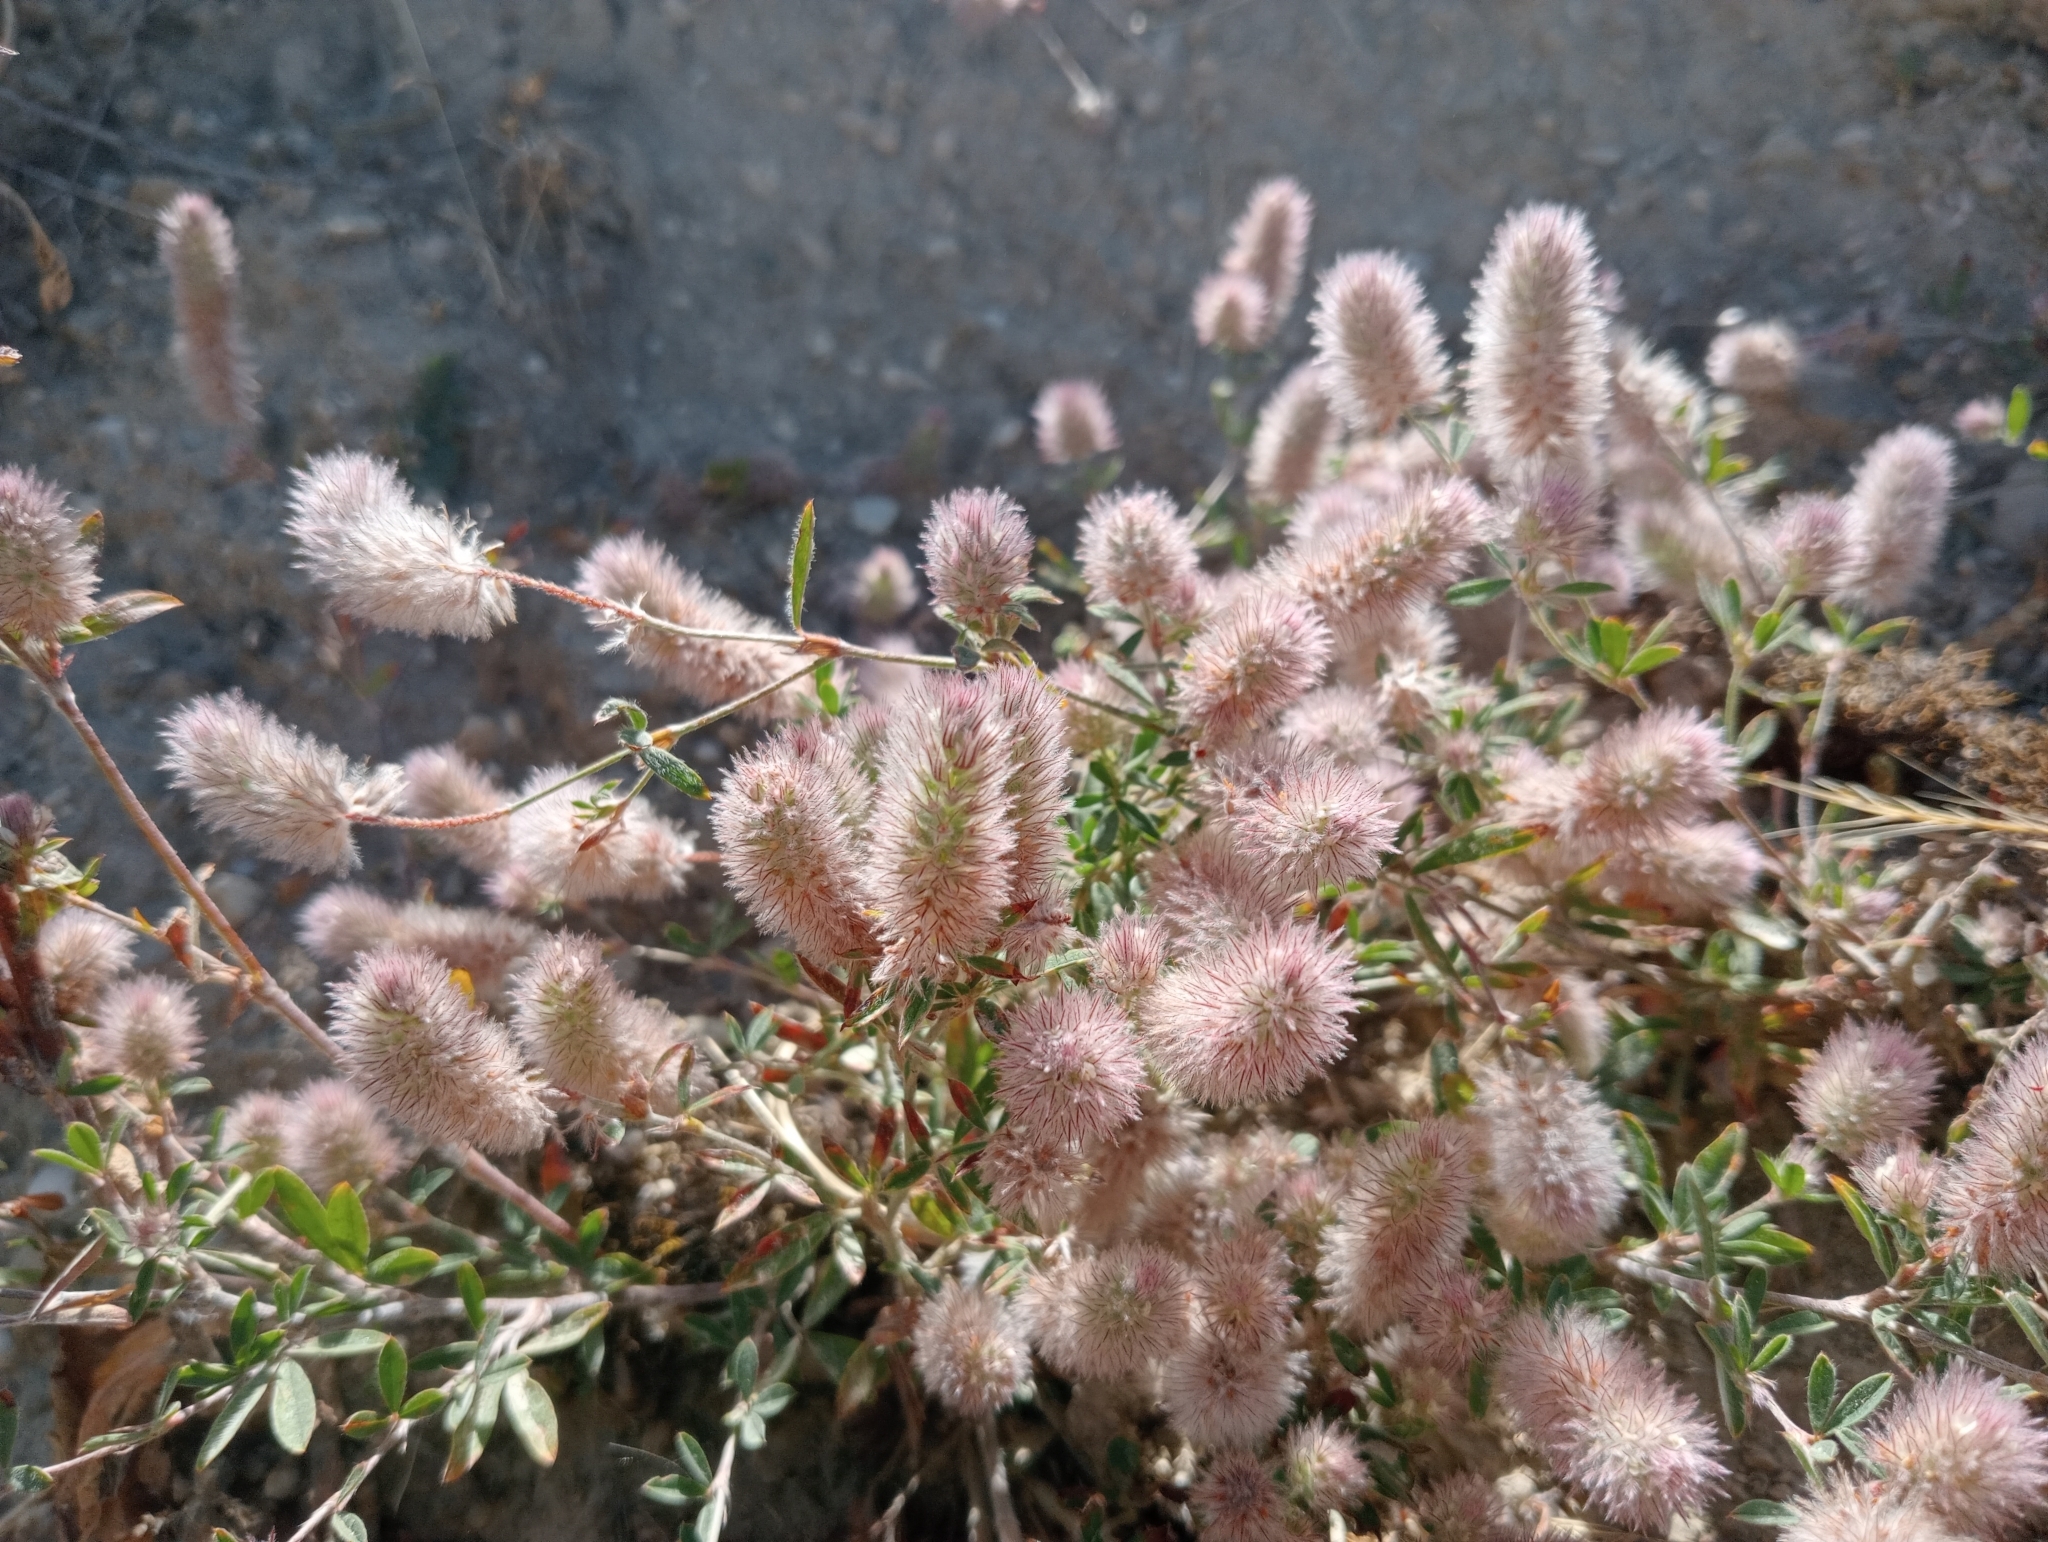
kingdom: Plantae
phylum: Tracheophyta
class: Magnoliopsida
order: Fabales
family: Fabaceae
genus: Trifolium
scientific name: Trifolium arvense
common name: Hare's-foot clover
